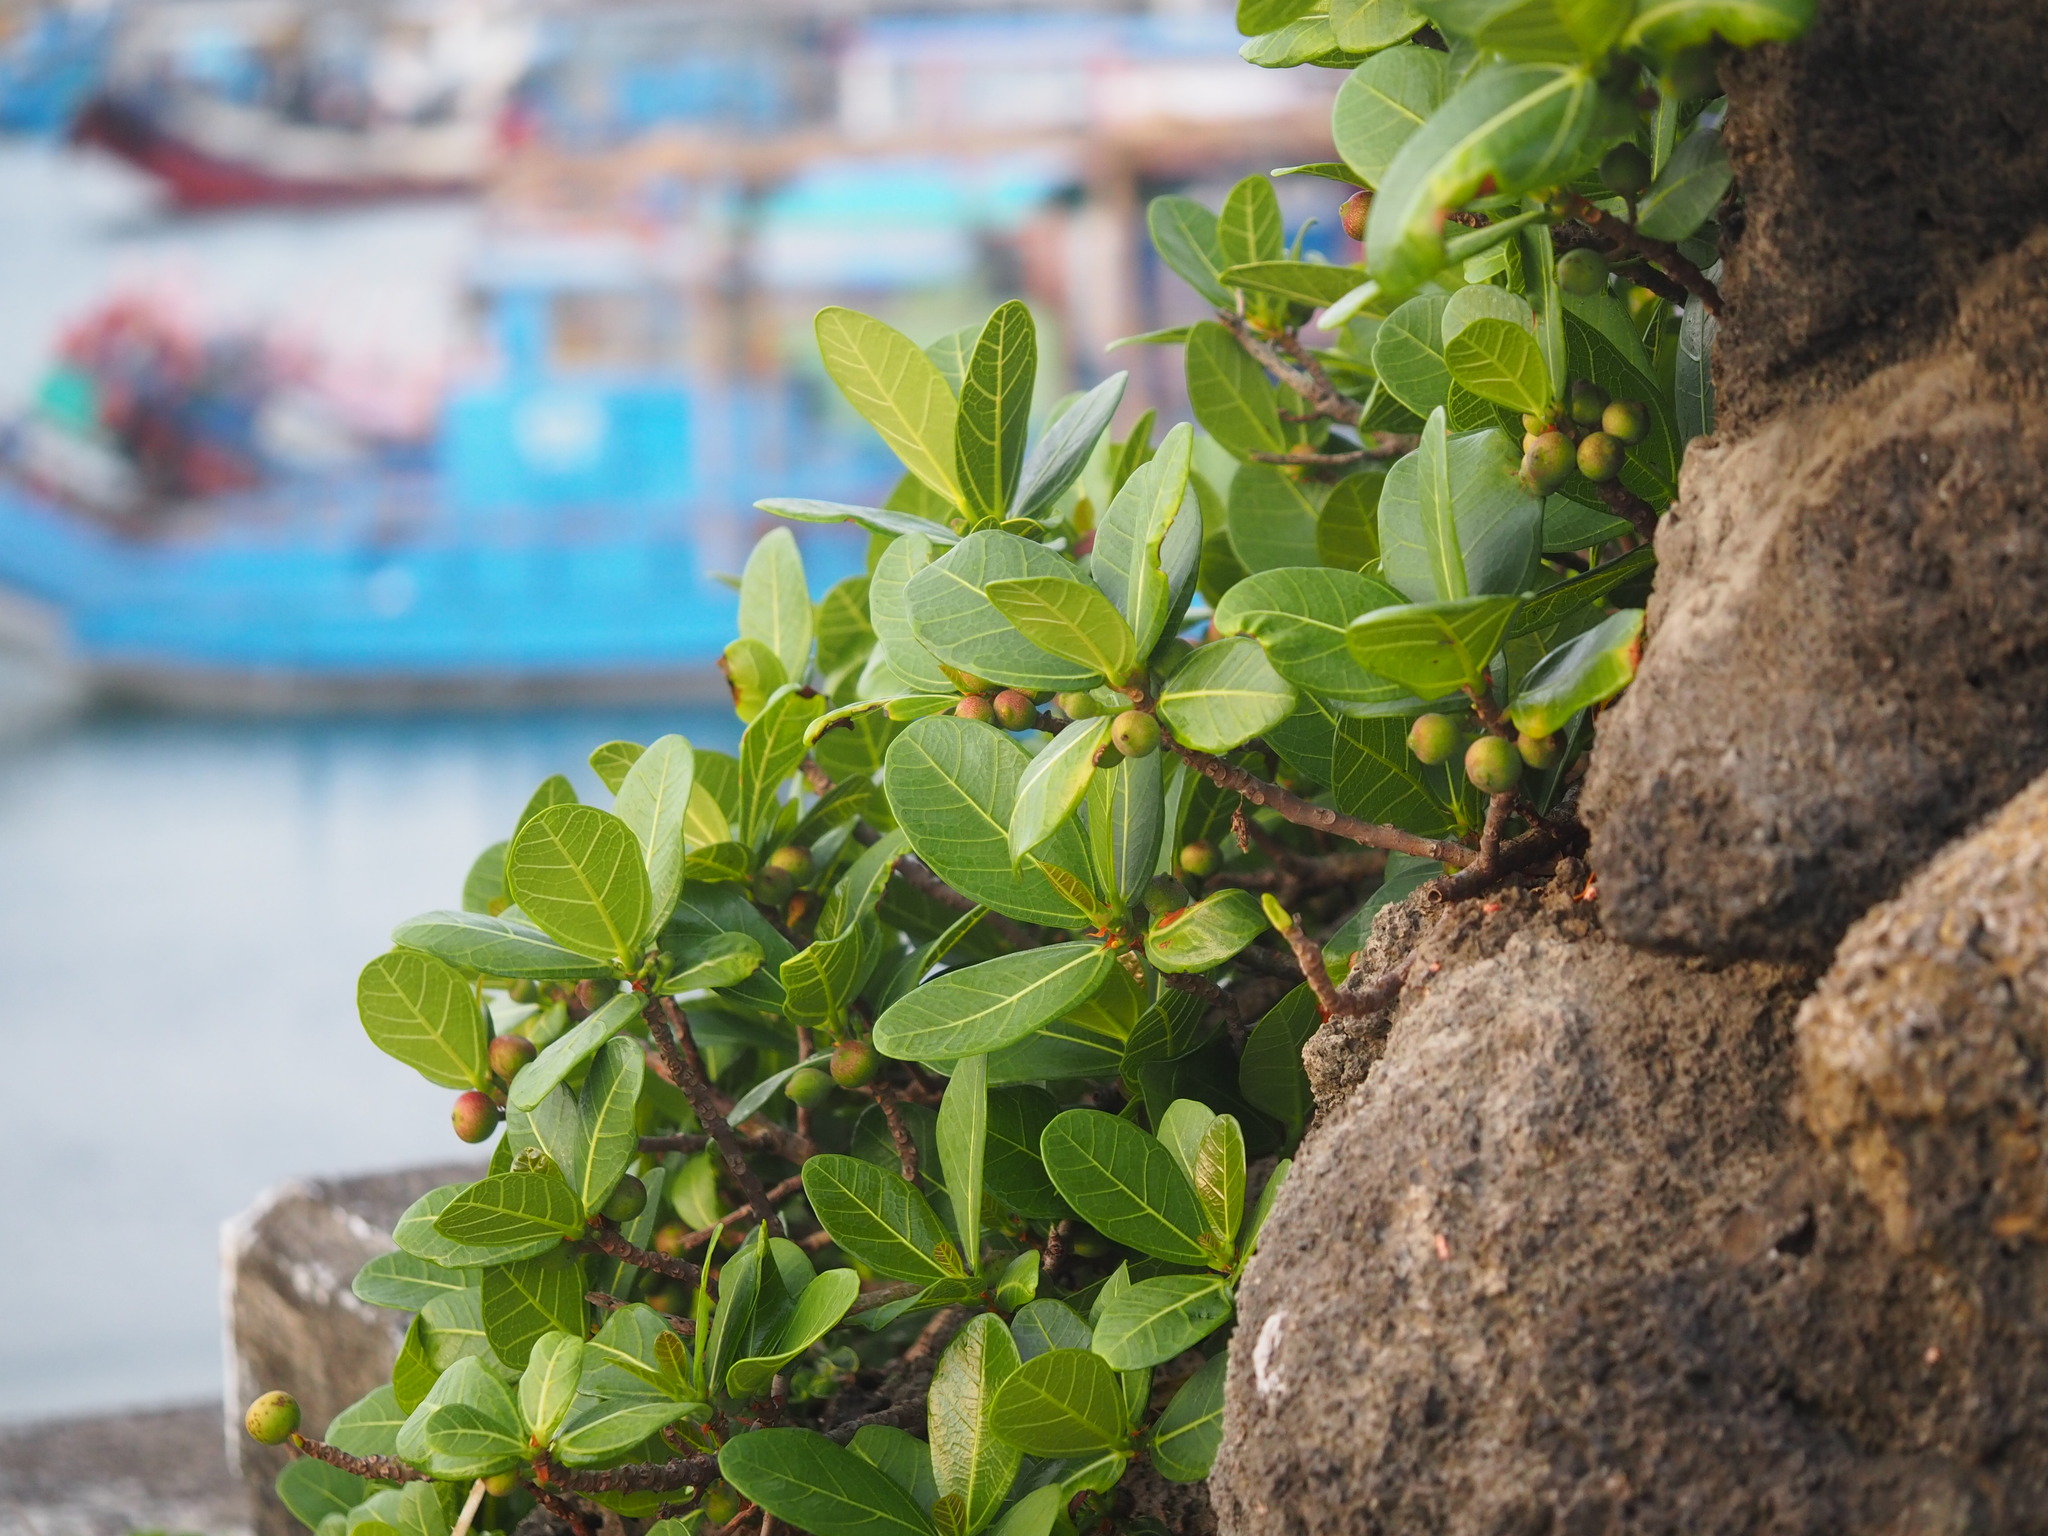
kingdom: Plantae
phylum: Tracheophyta
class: Magnoliopsida
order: Rosales
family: Moraceae
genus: Ficus
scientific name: Ficus pedunculosa
